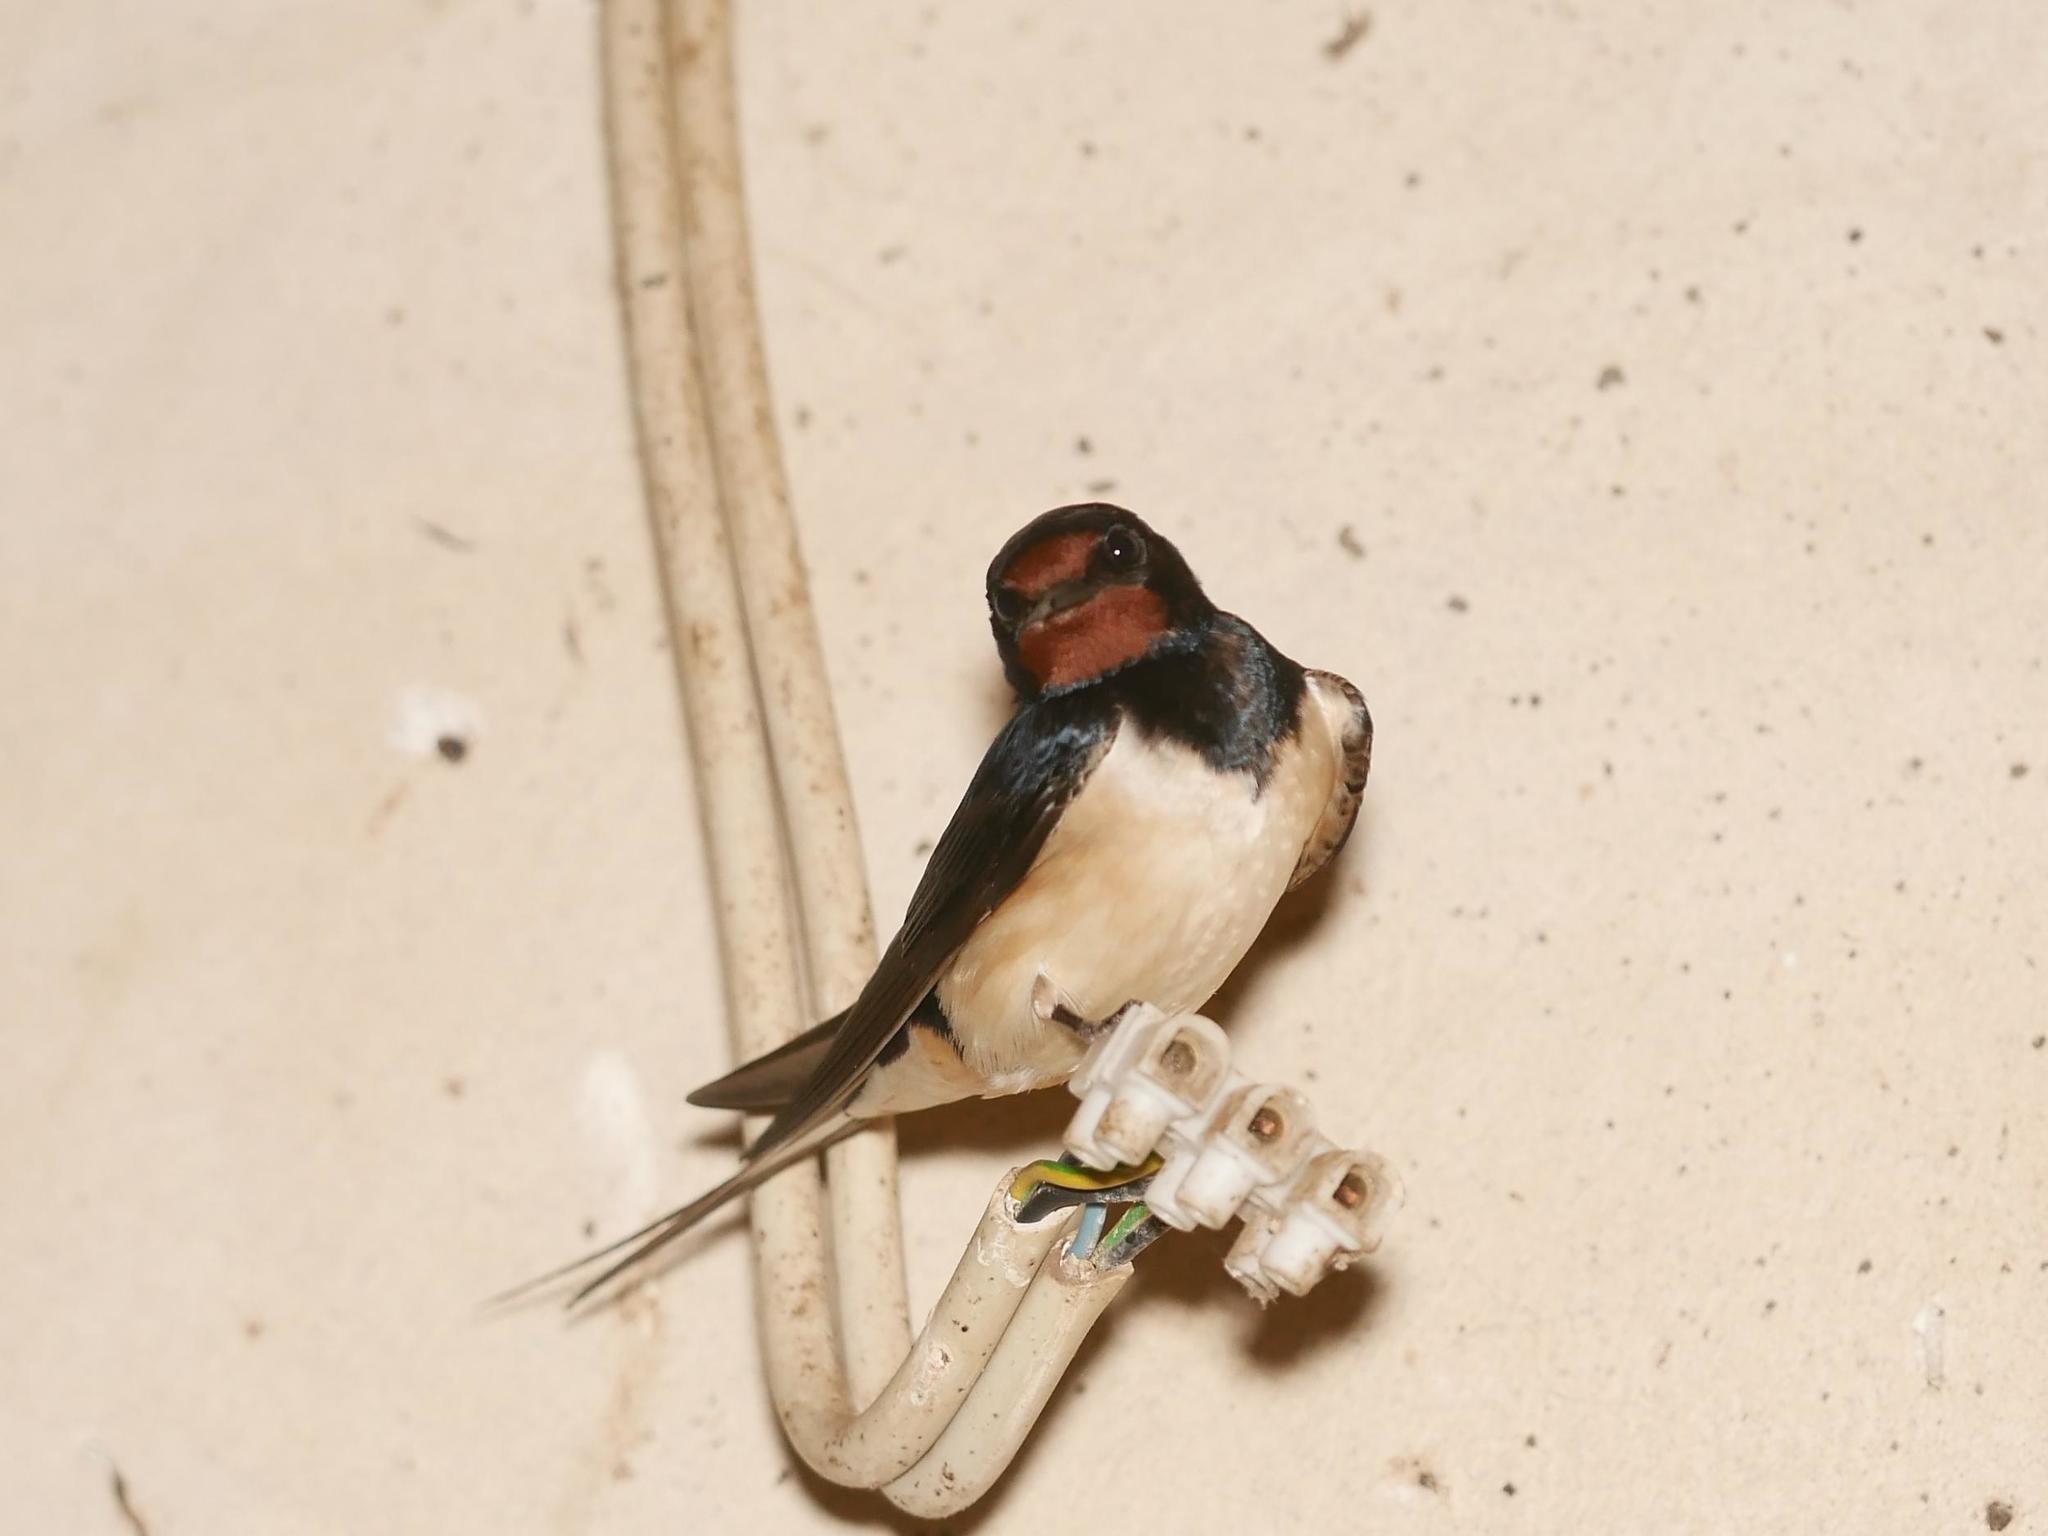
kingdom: Animalia
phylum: Chordata
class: Aves
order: Passeriformes
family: Hirundinidae
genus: Hirundo
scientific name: Hirundo rustica
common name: Barn swallow
